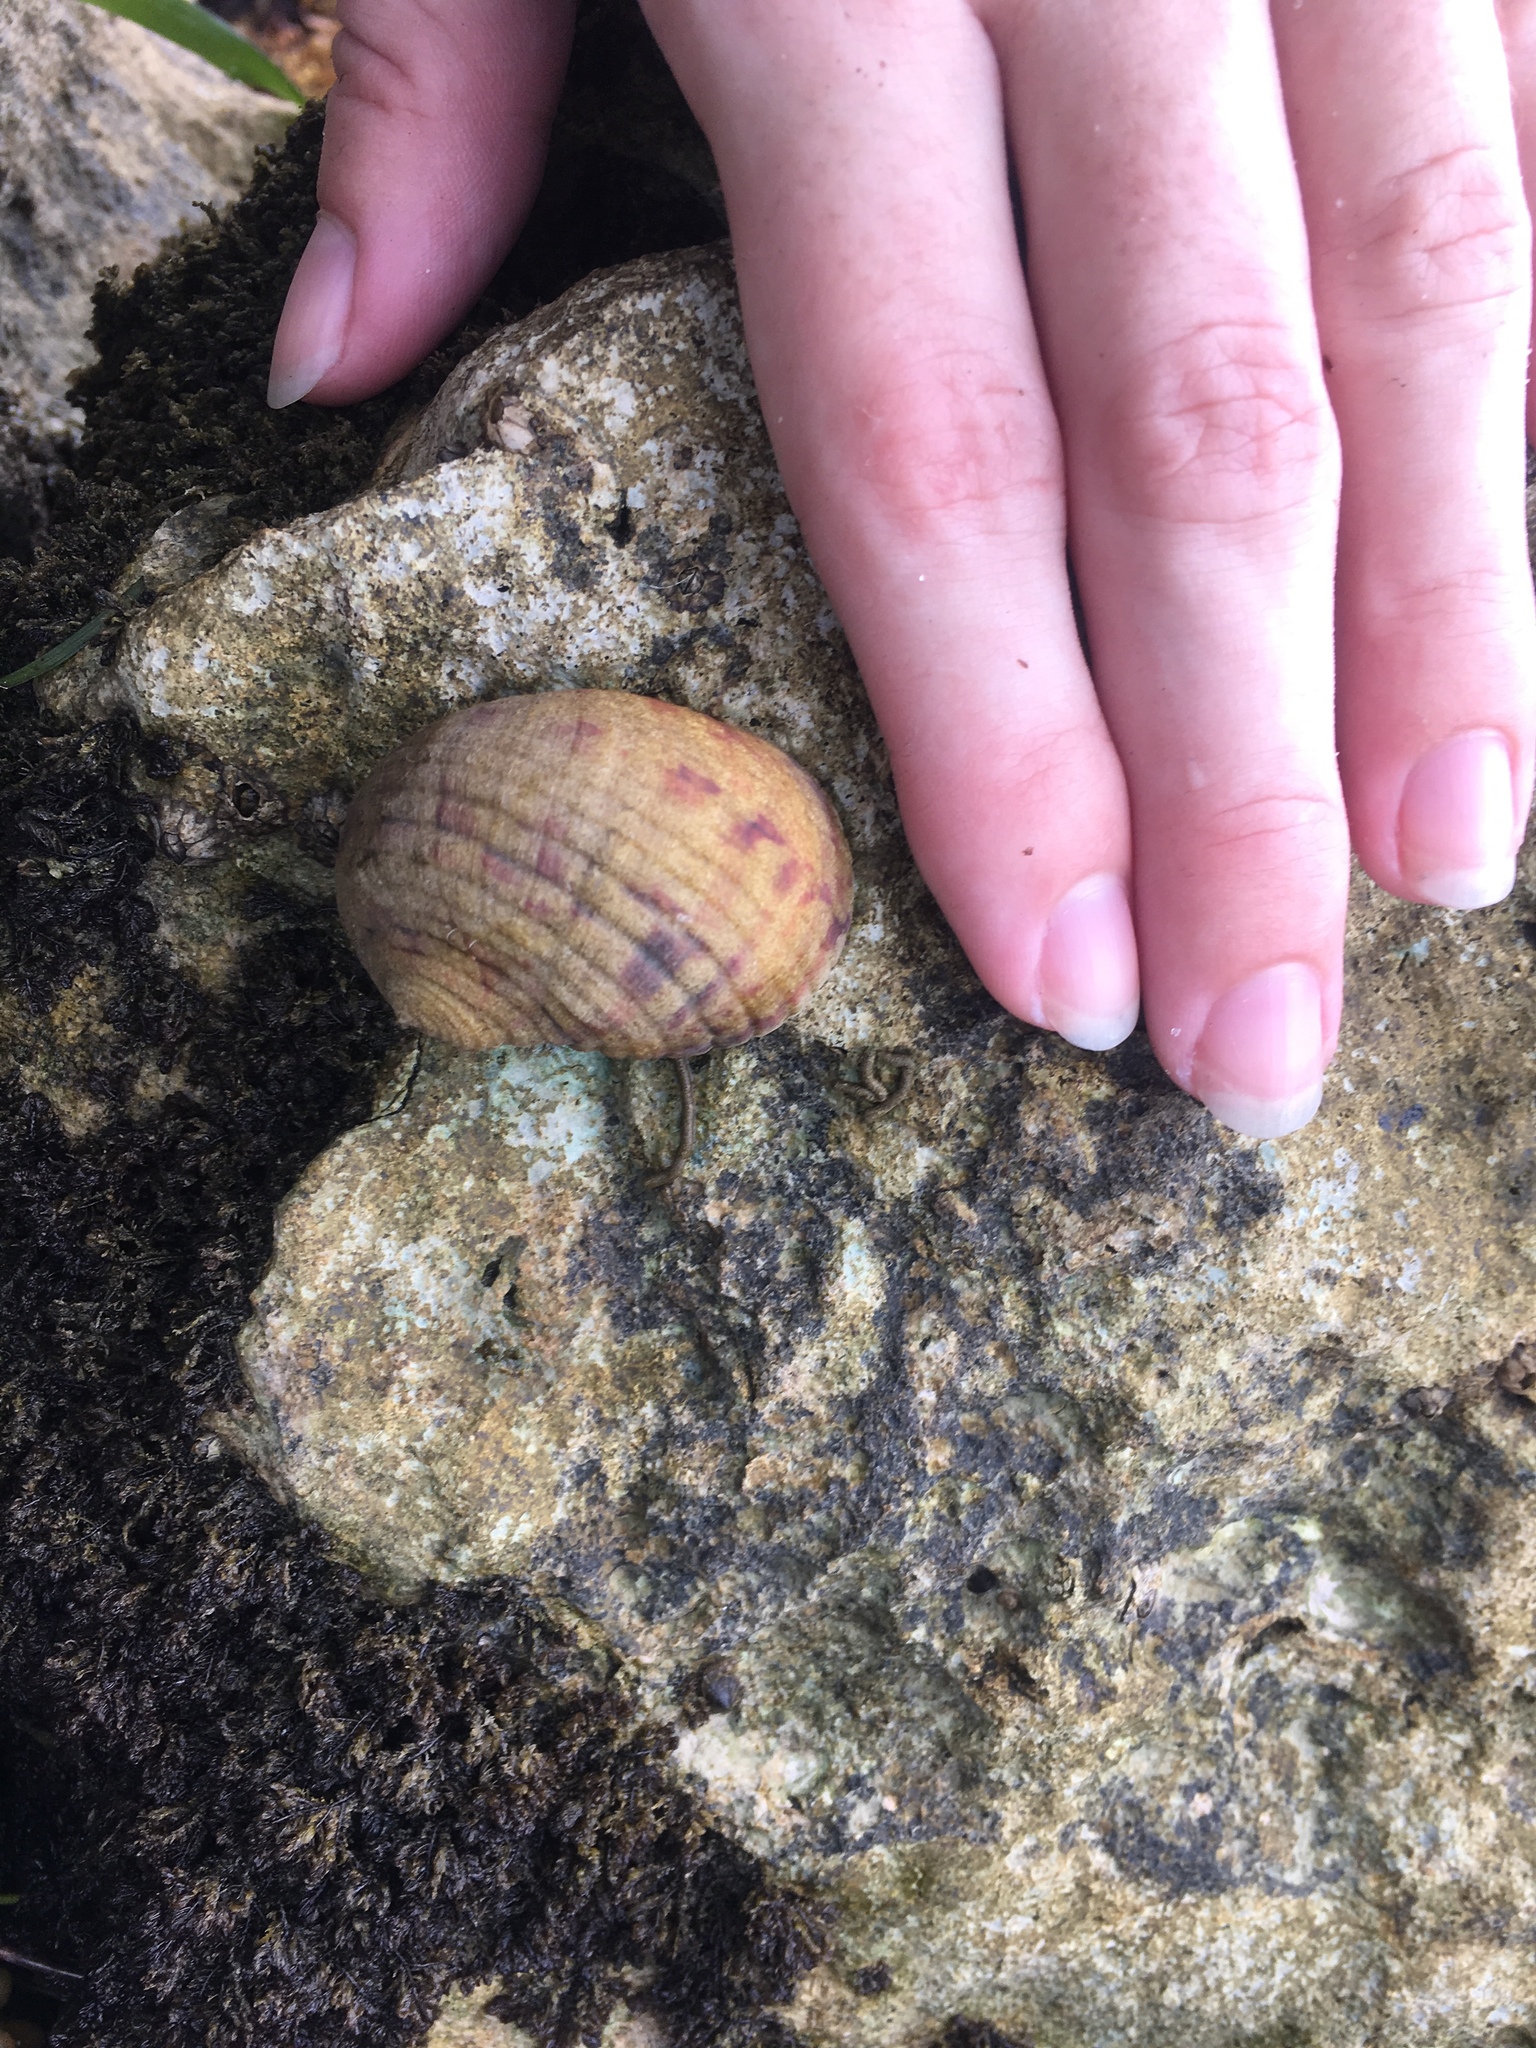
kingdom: Animalia
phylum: Mollusca
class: Gastropoda
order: Cycloneritida
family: Neritidae
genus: Nerita
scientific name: Nerita peloronta
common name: Bleeding tooth
